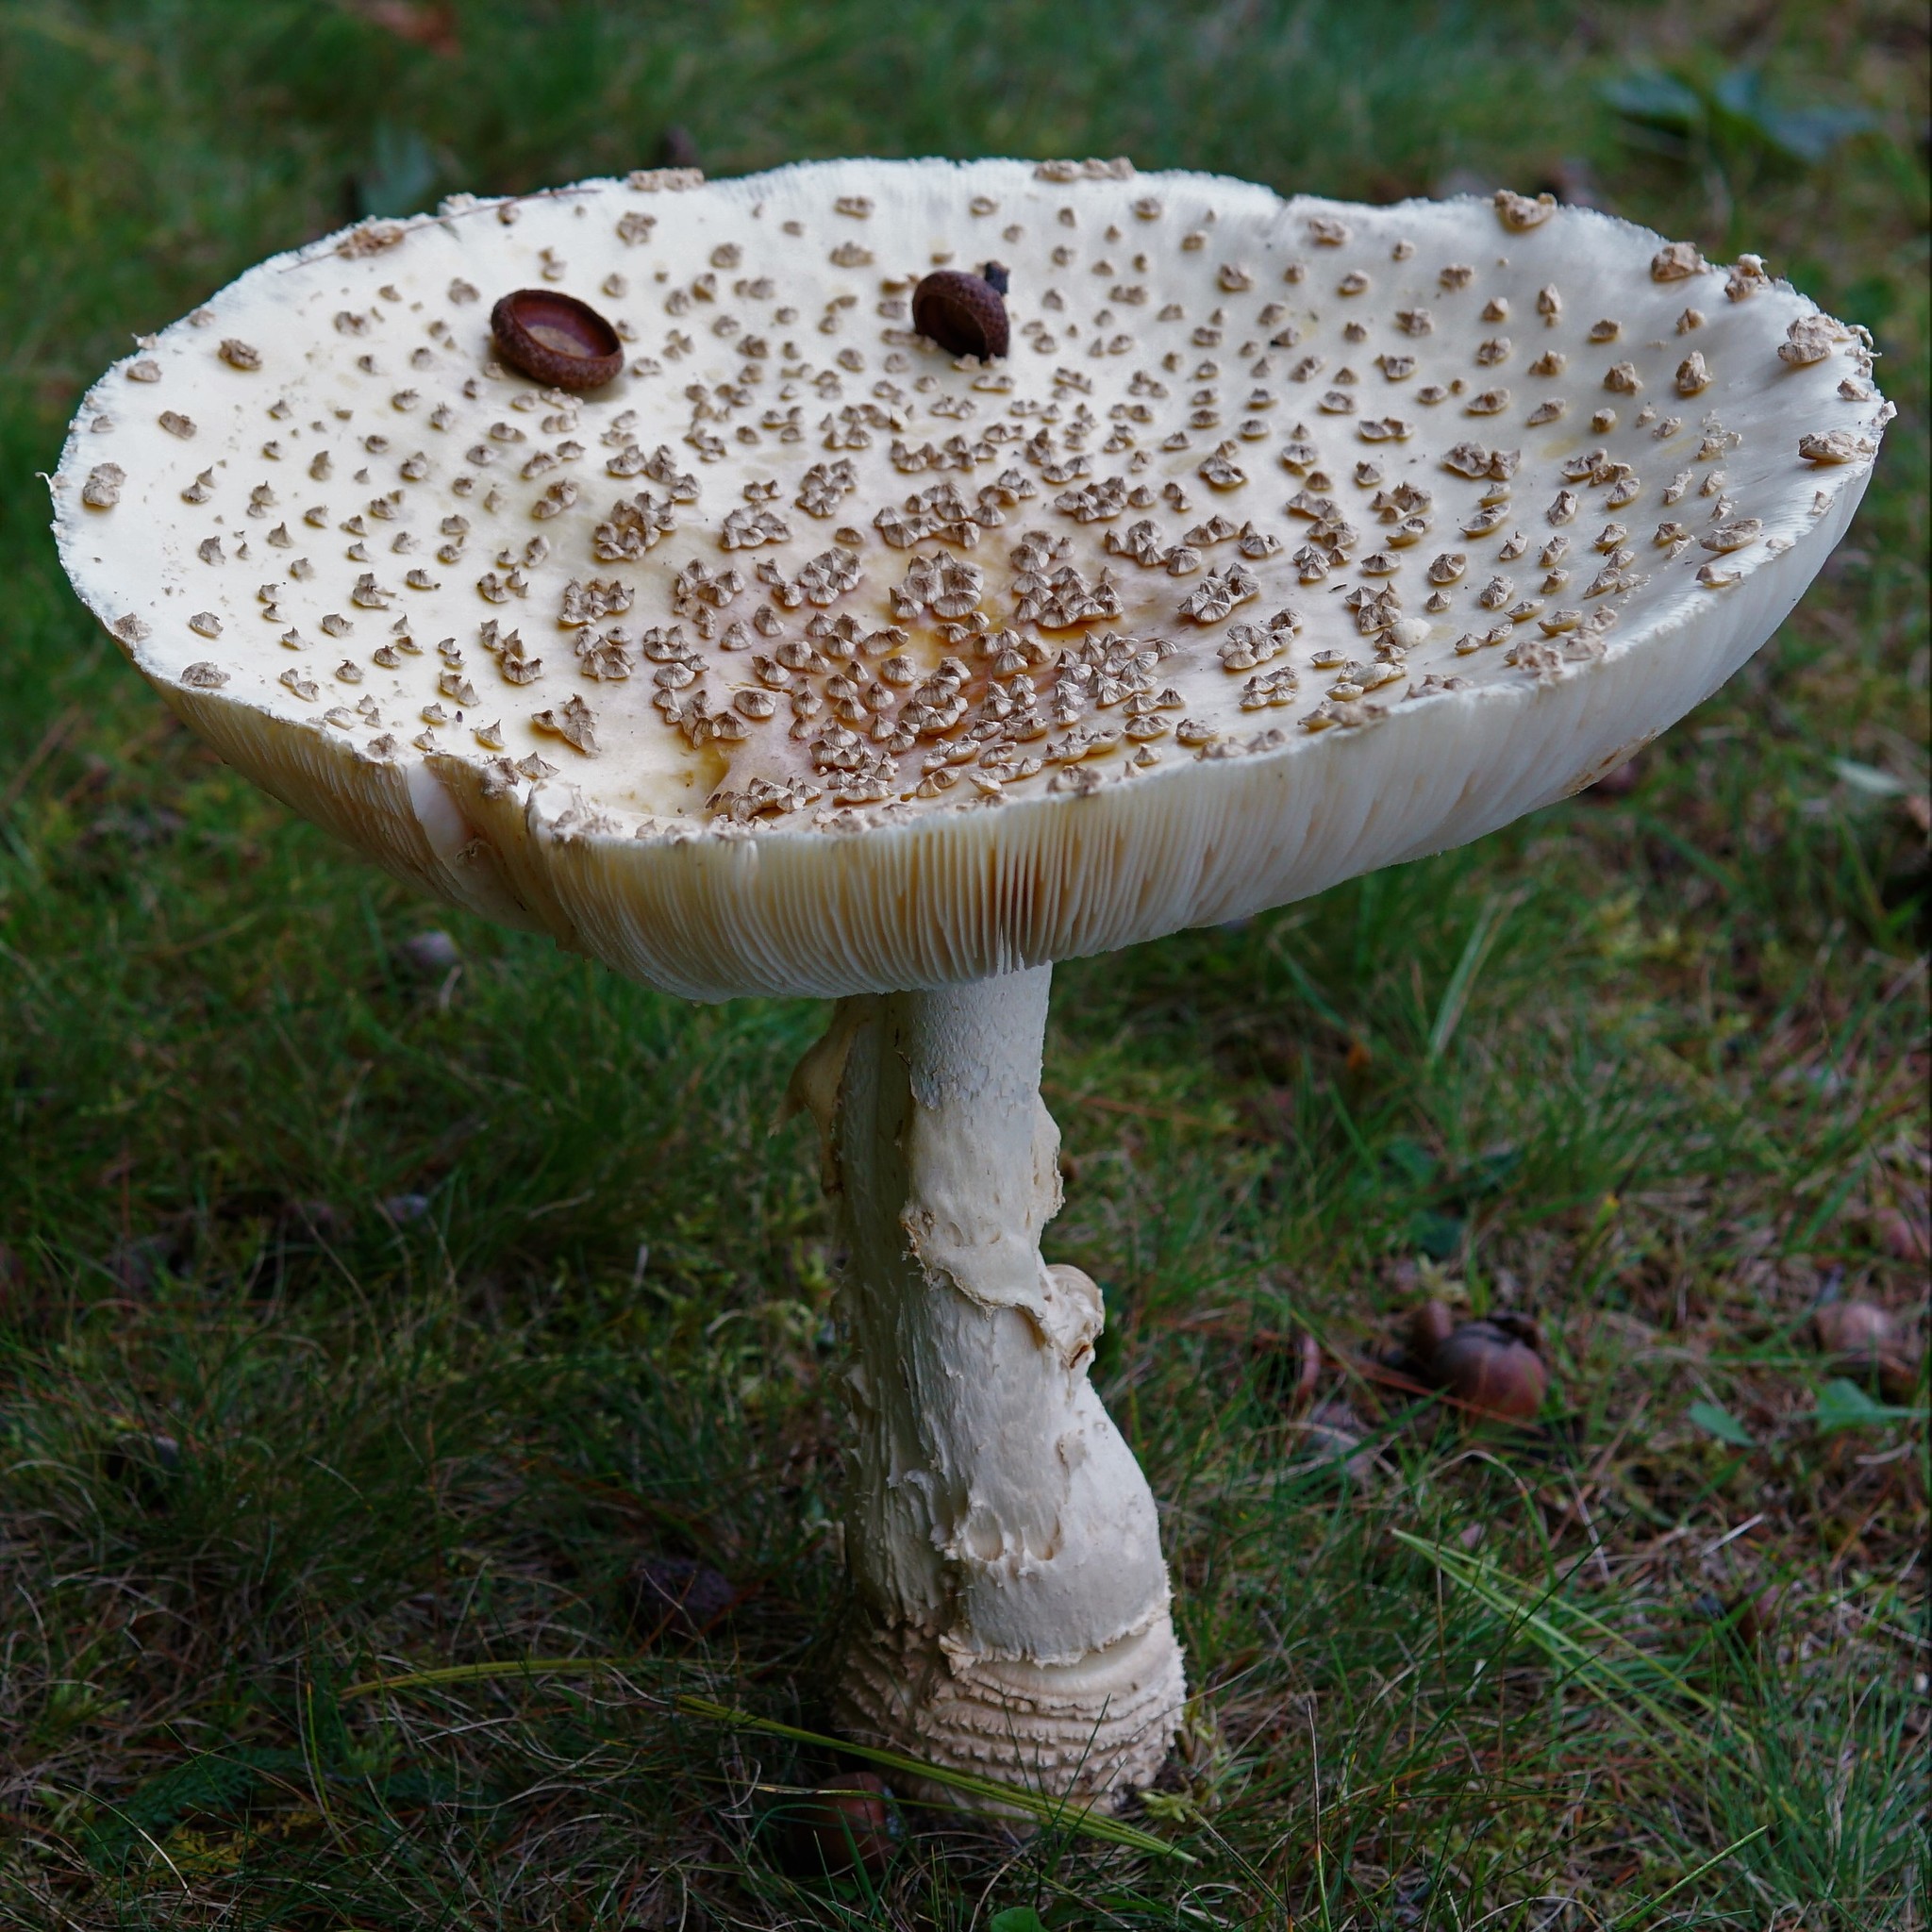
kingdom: Fungi
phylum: Basidiomycota
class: Agaricomycetes
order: Agaricales
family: Amanitaceae
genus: Amanita
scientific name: Amanita muscaria
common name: Fly agaric
